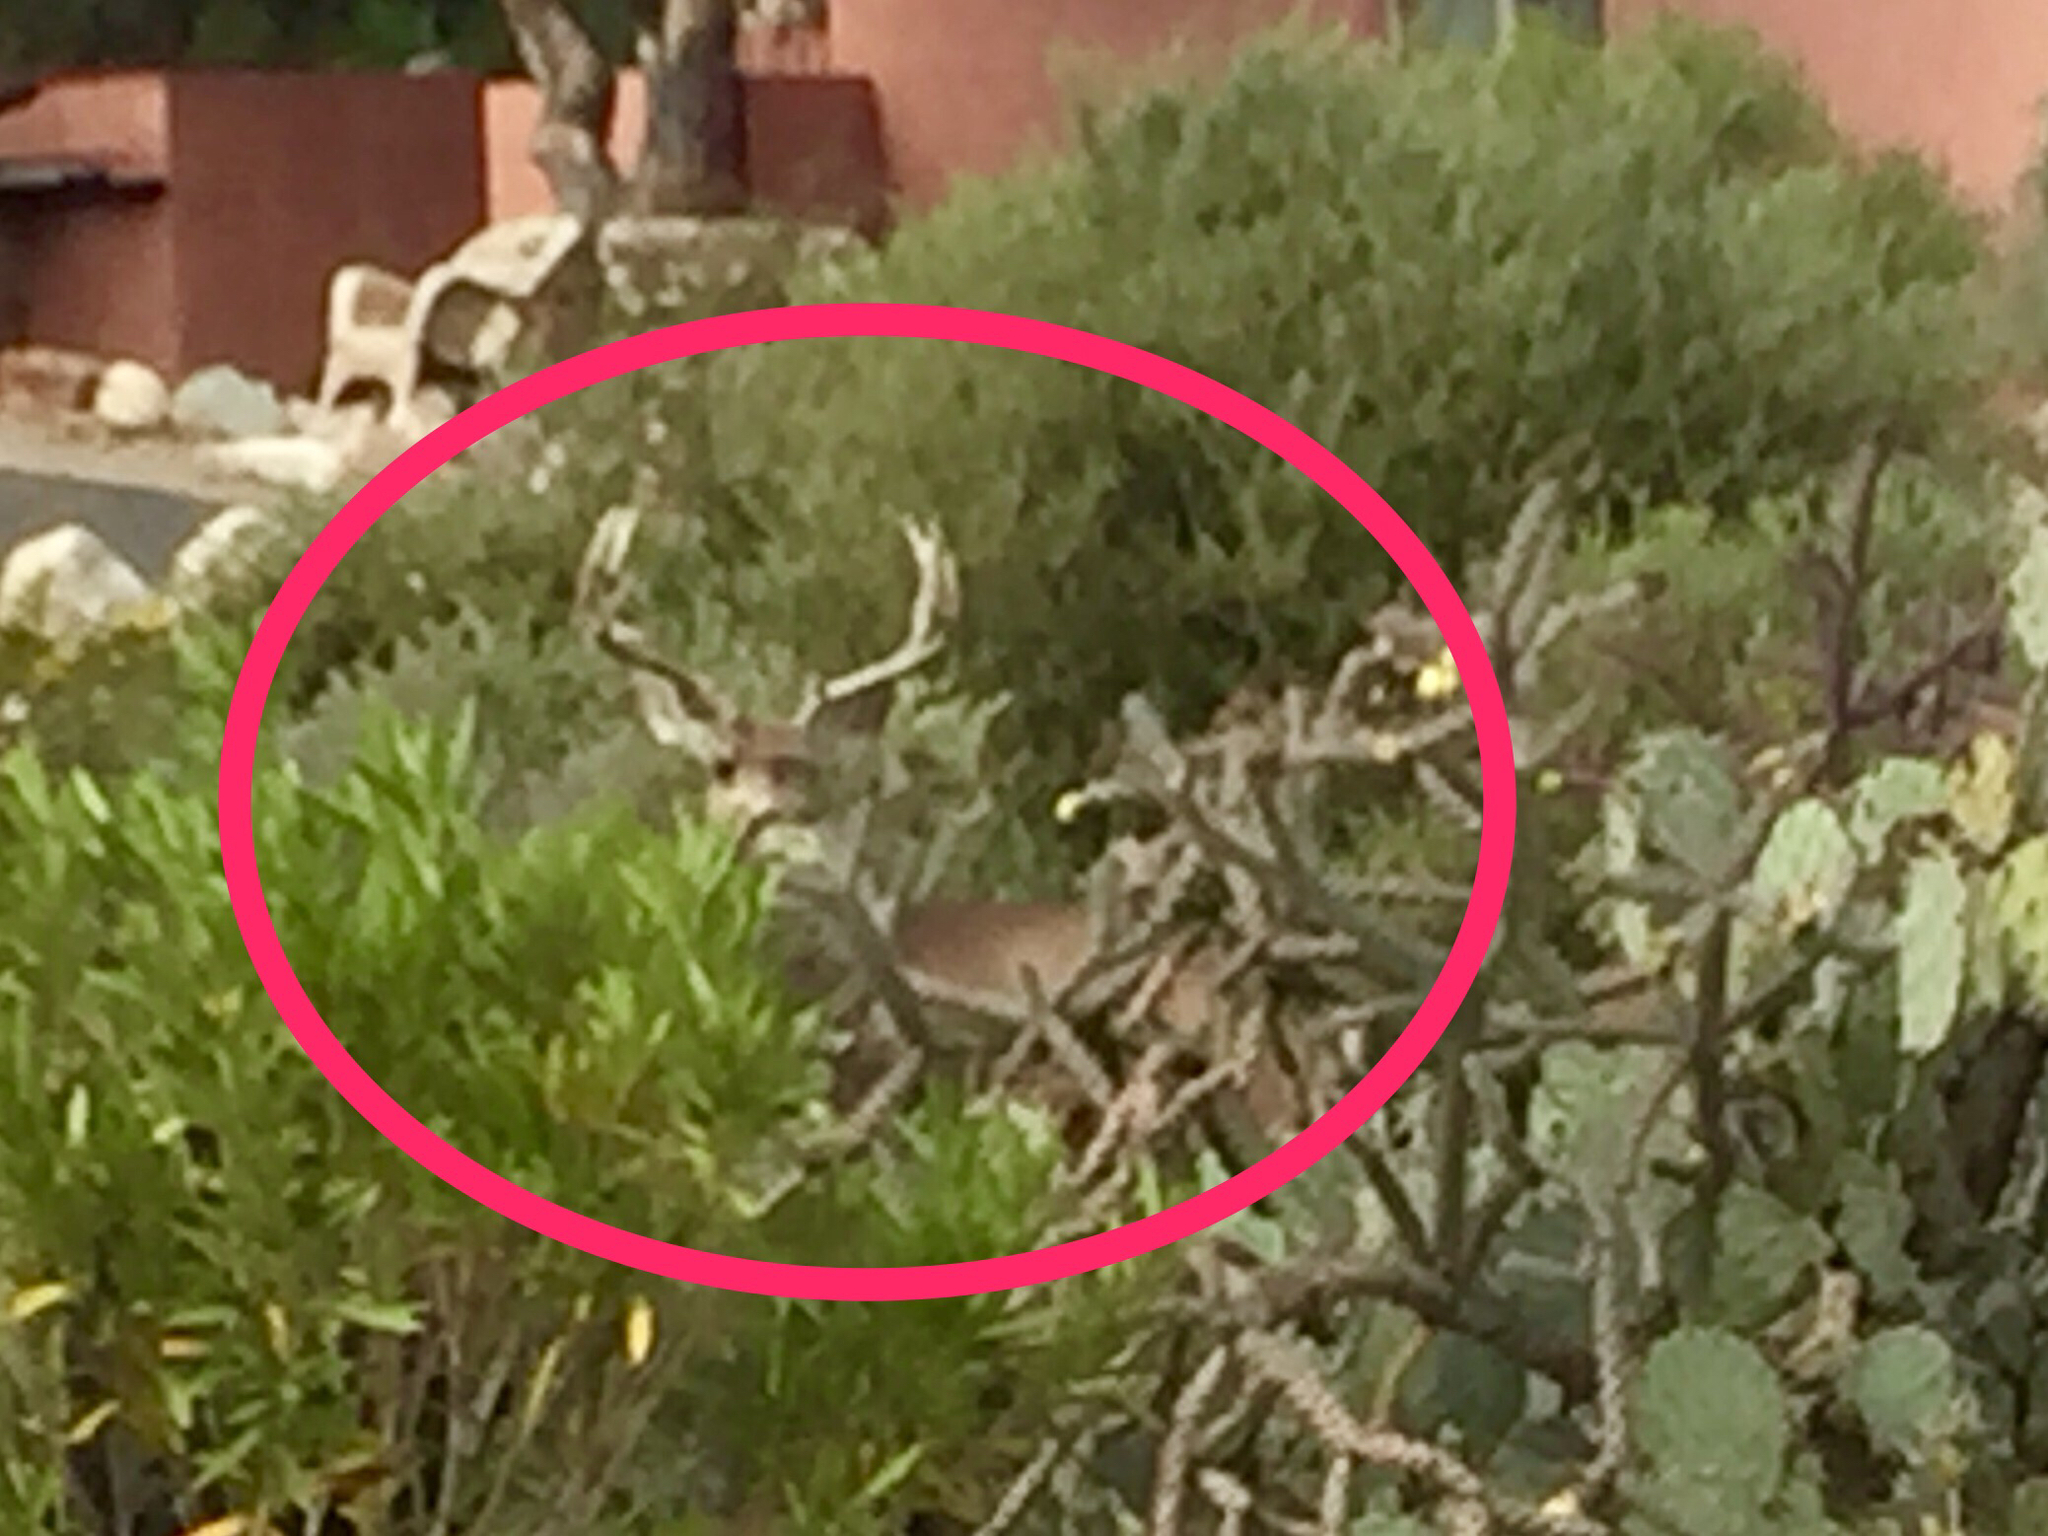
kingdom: Animalia
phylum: Chordata
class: Mammalia
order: Artiodactyla
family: Cervidae
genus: Odocoileus
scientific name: Odocoileus hemionus
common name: Mule deer
